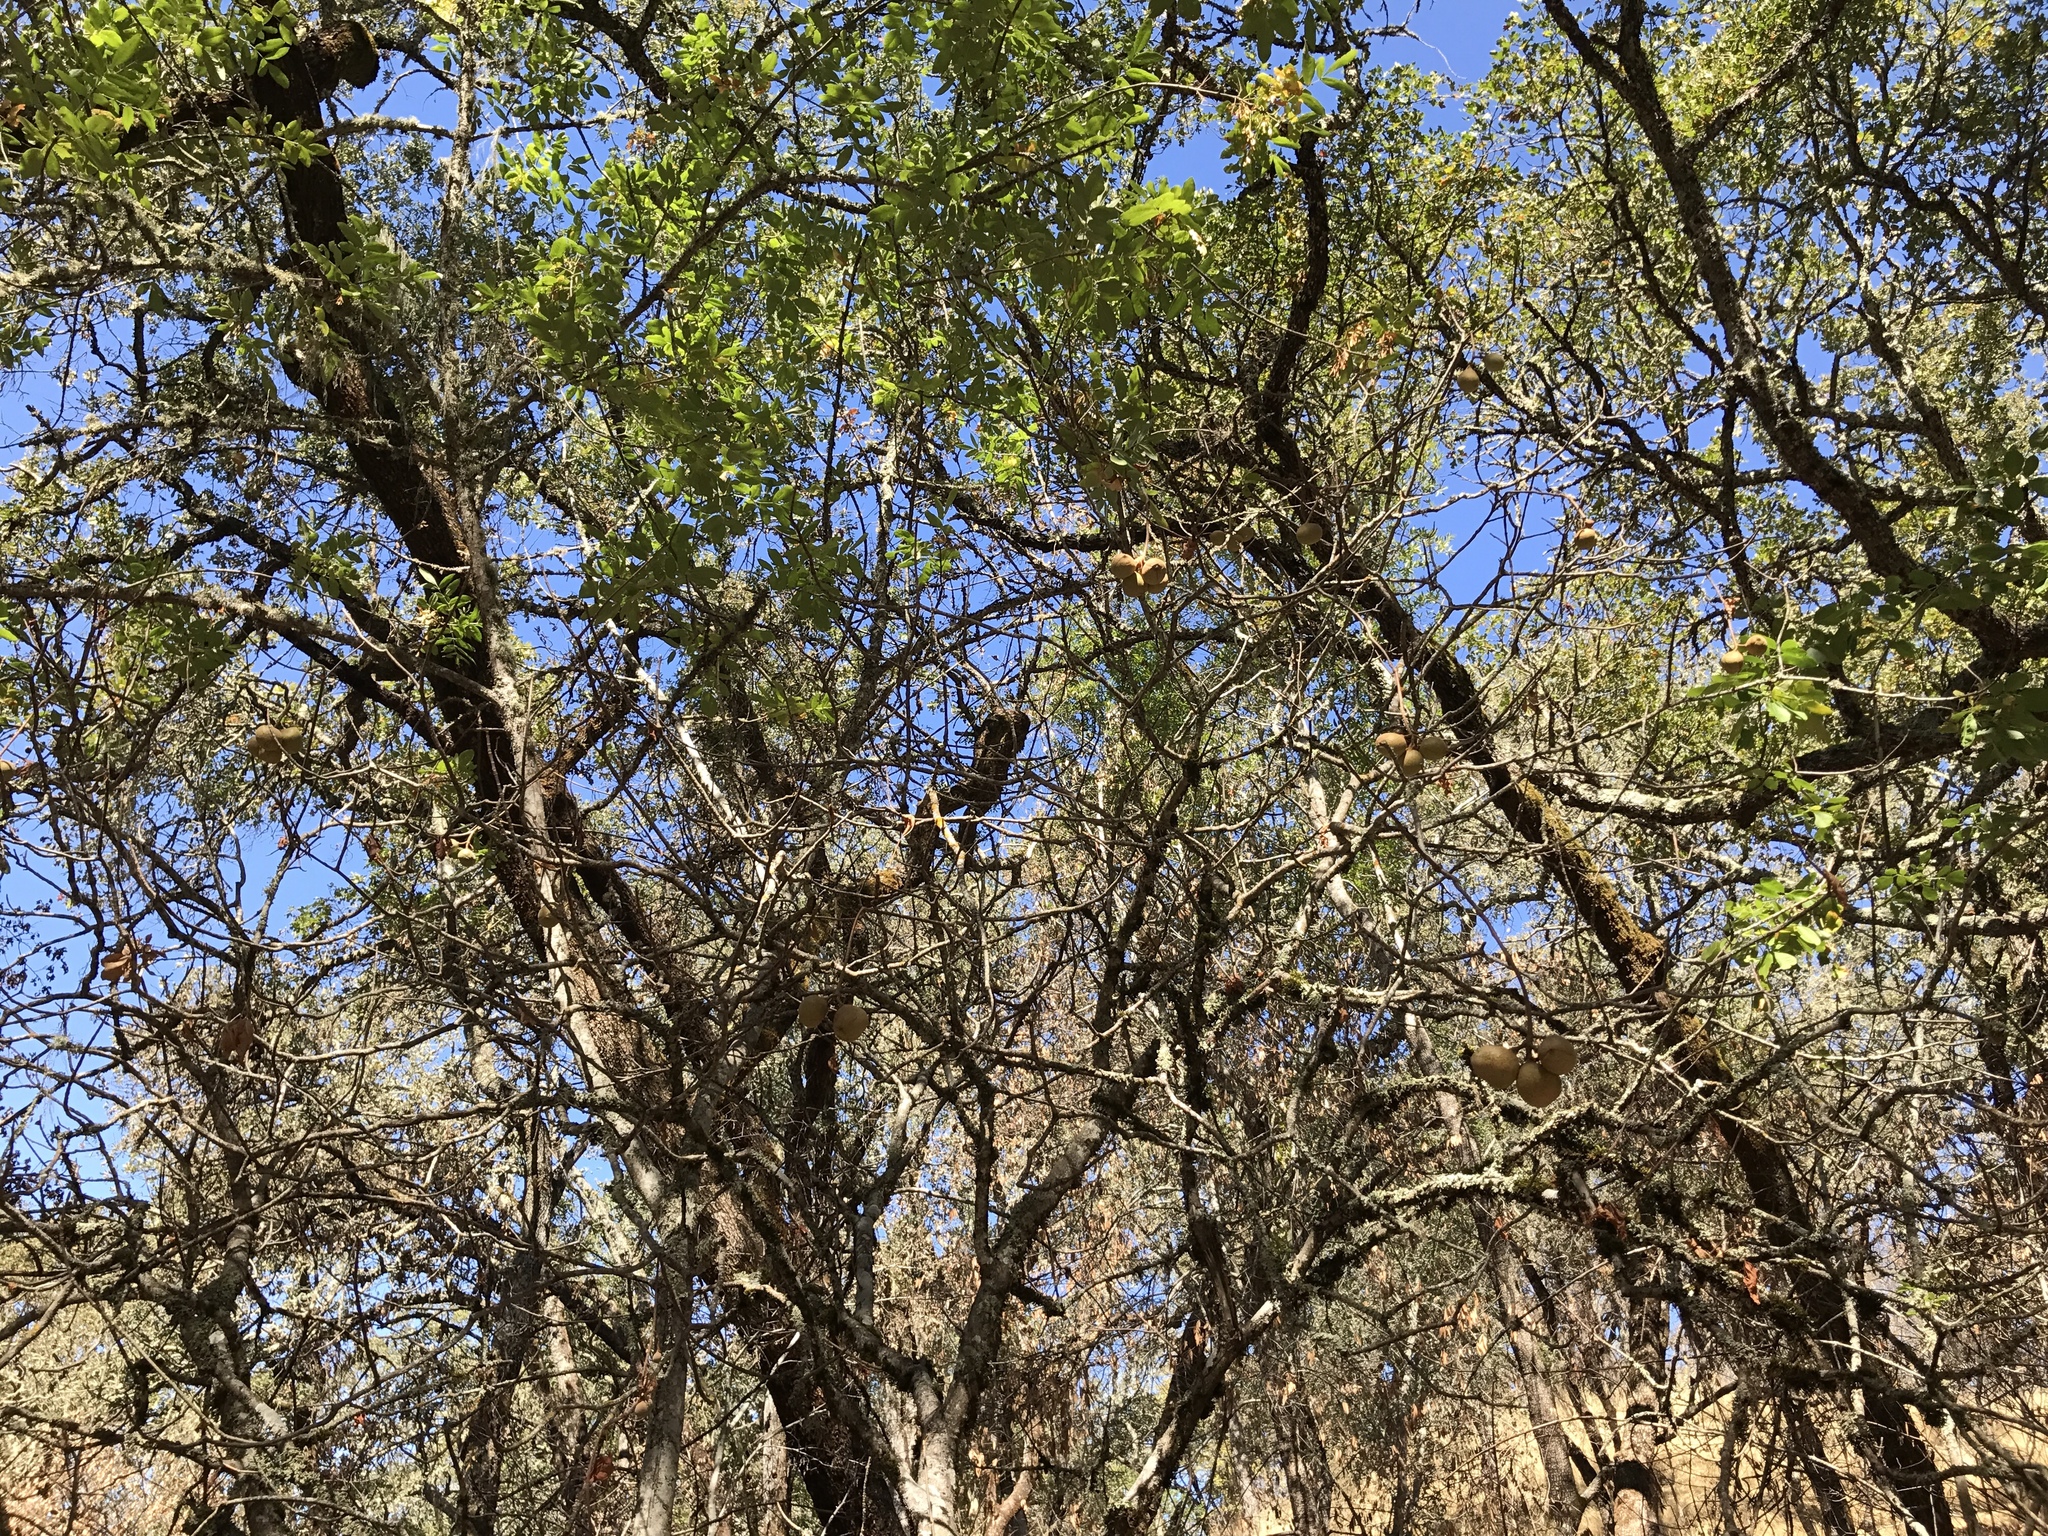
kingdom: Plantae
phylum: Tracheophyta
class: Magnoliopsida
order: Sapindales
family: Sapindaceae
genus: Aesculus
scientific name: Aesculus californica
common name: California buckeye
